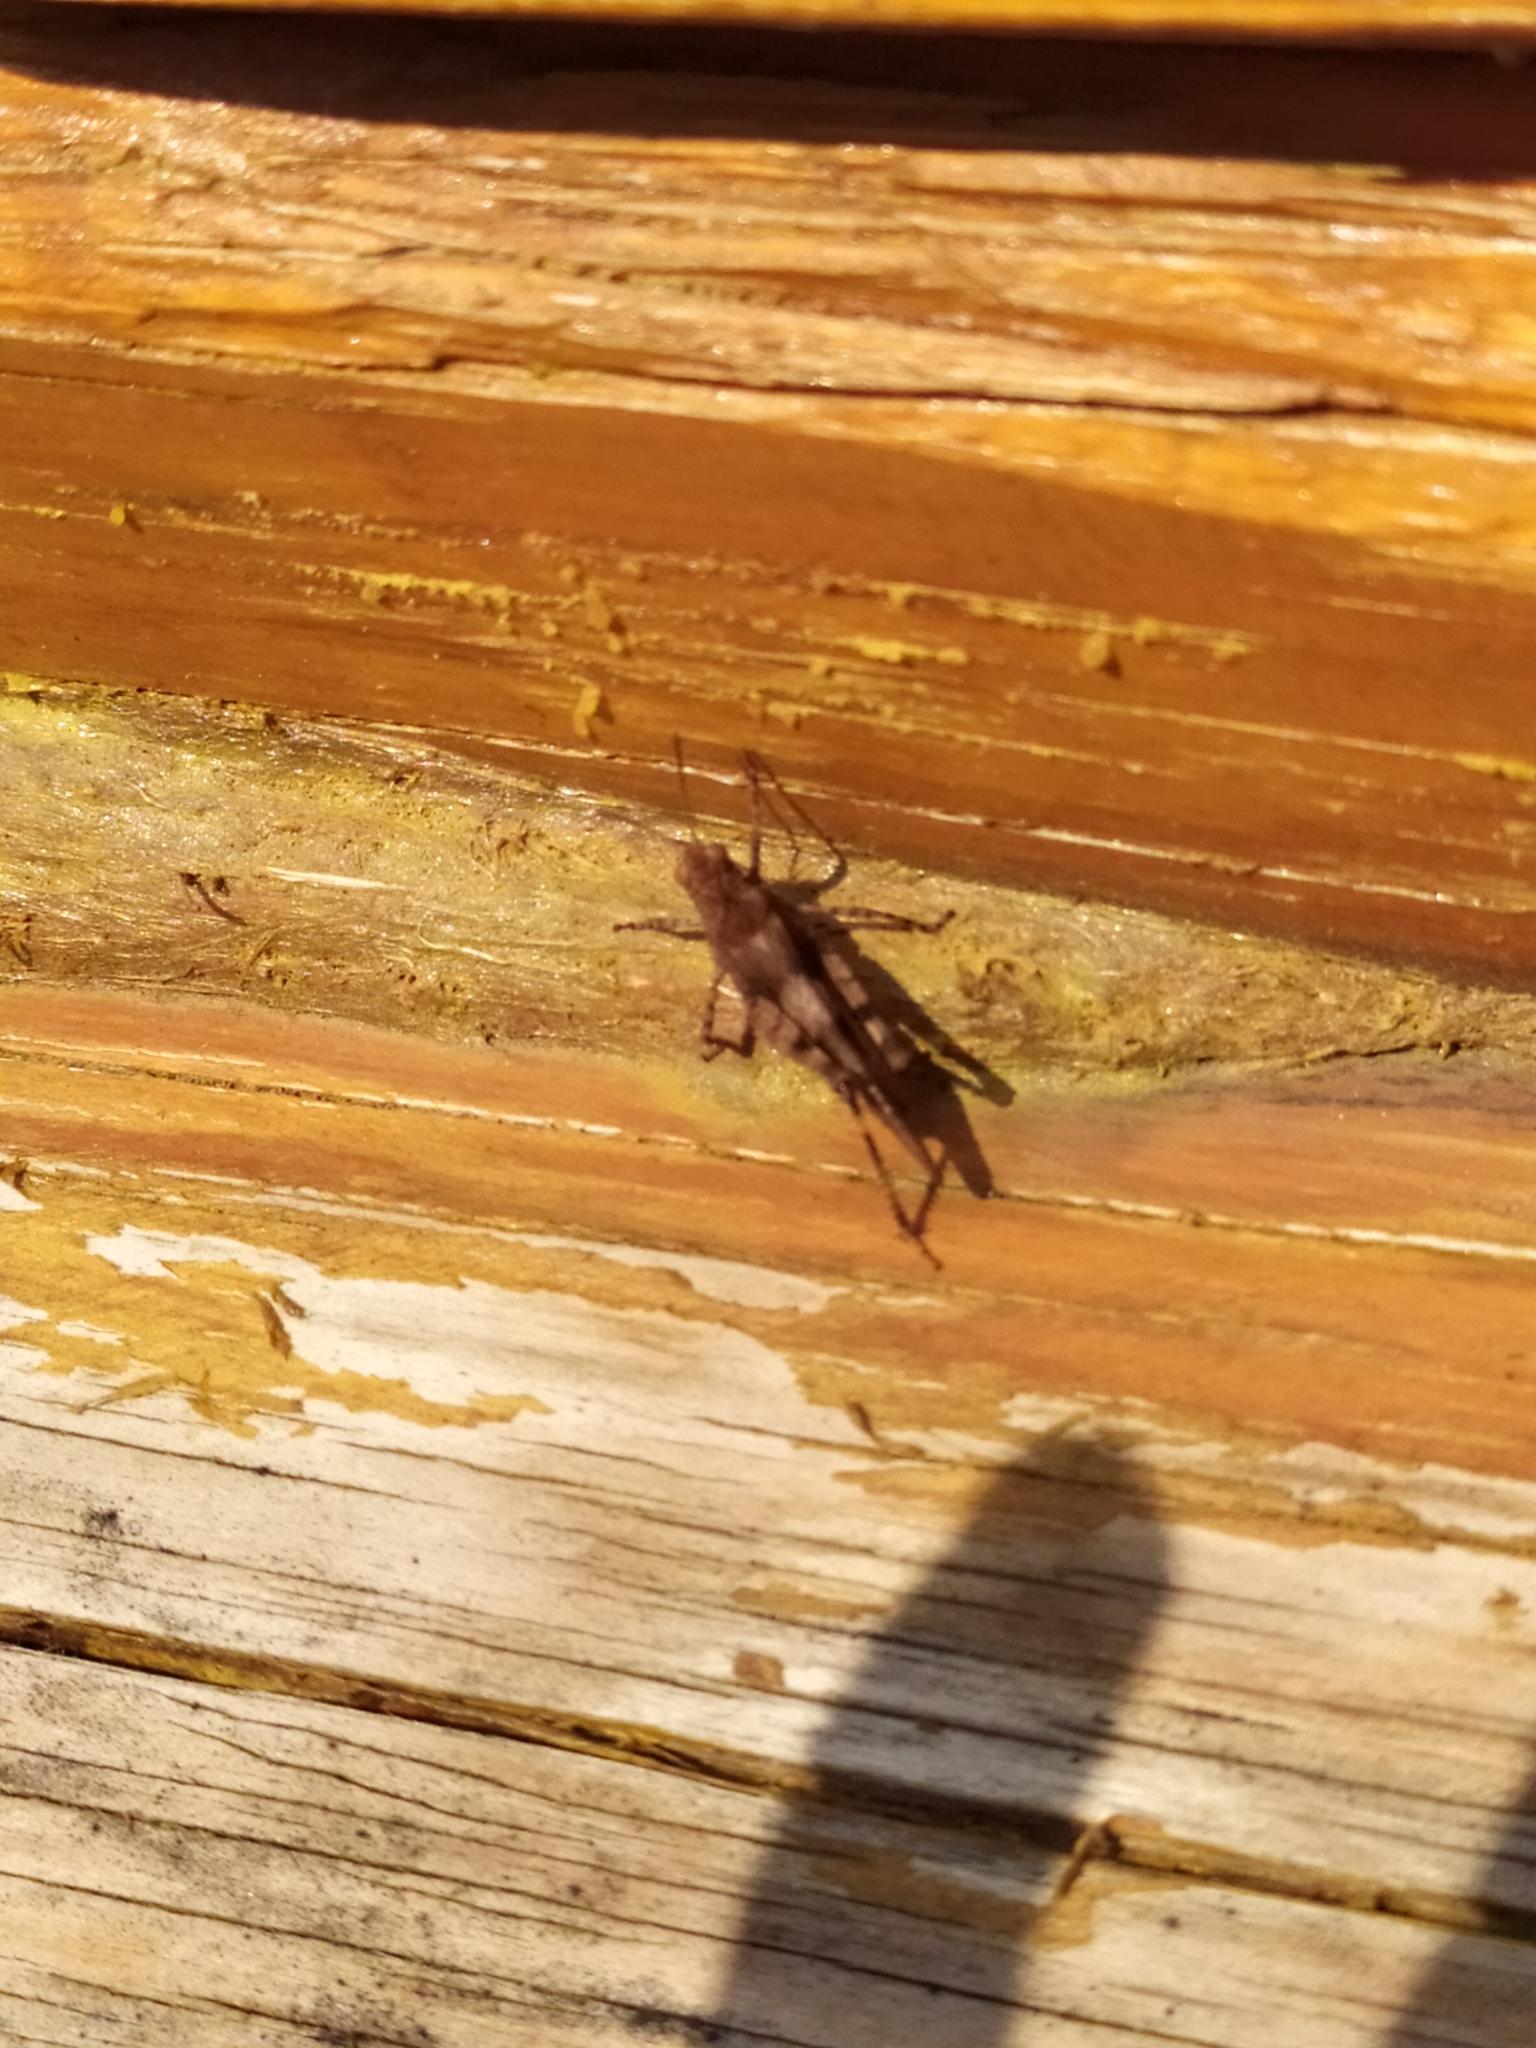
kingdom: Animalia
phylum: Arthropoda
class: Insecta
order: Orthoptera
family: Acrididae
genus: Oedipoda
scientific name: Oedipoda caerulescens
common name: Blue-winged grasshopper
